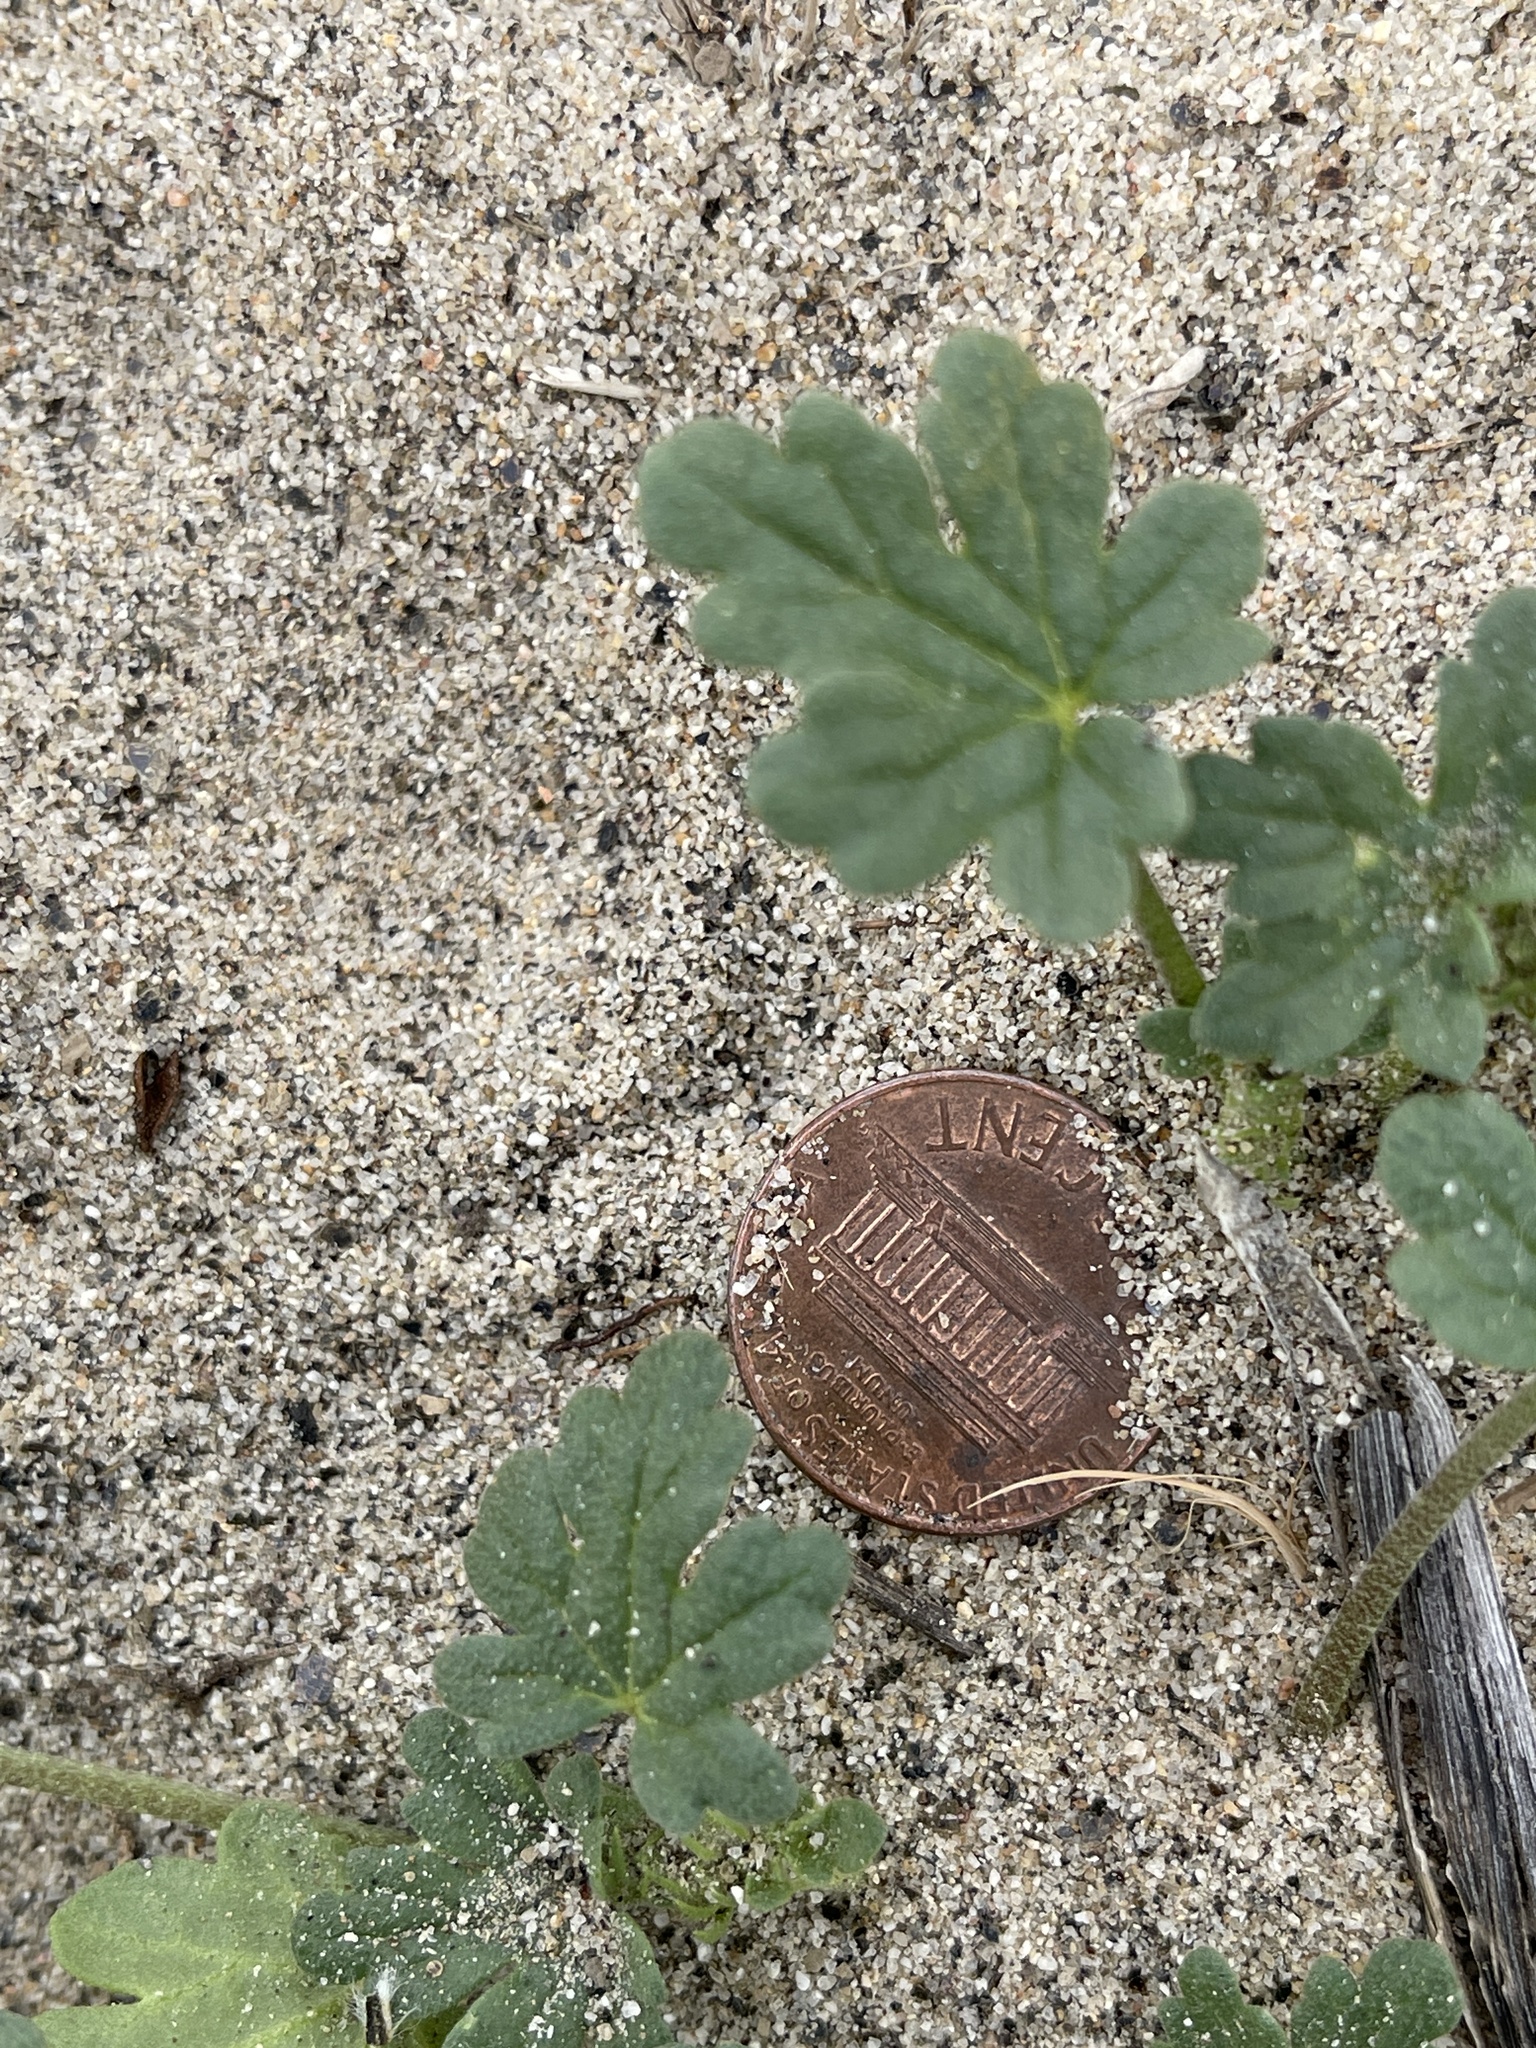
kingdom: Plantae
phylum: Tracheophyta
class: Magnoliopsida
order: Malvales
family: Malvaceae
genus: Eremalche
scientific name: Eremalche exilis
